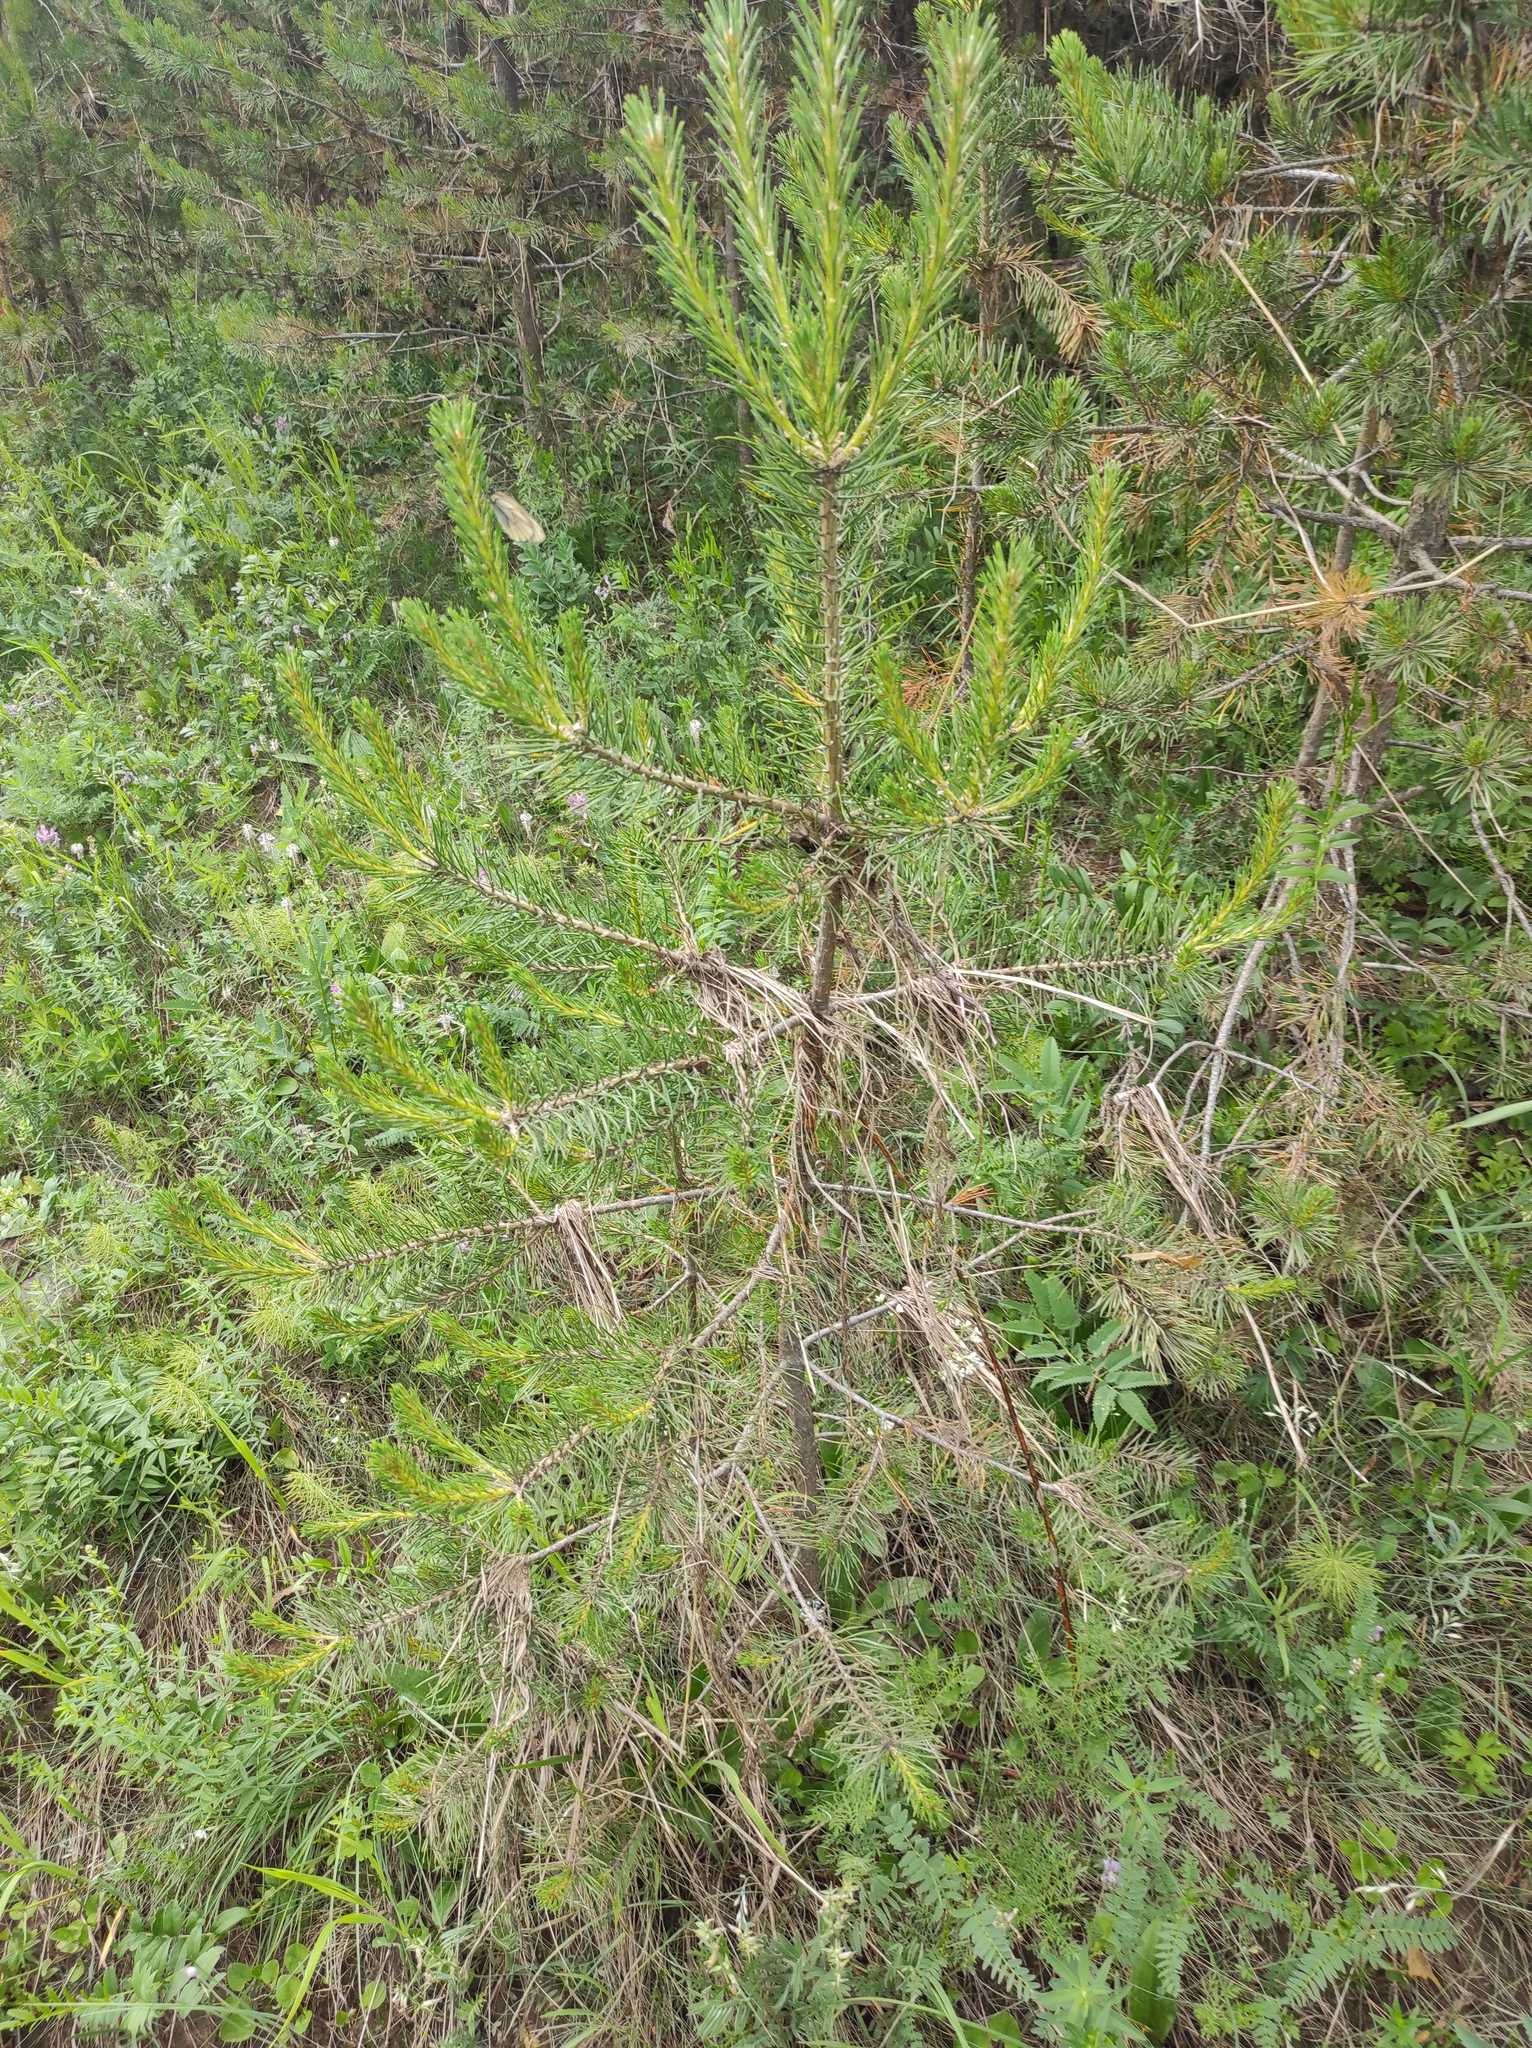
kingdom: Plantae
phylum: Tracheophyta
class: Pinopsida
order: Pinales
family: Pinaceae
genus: Pinus
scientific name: Pinus sylvestris
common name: Scots pine
